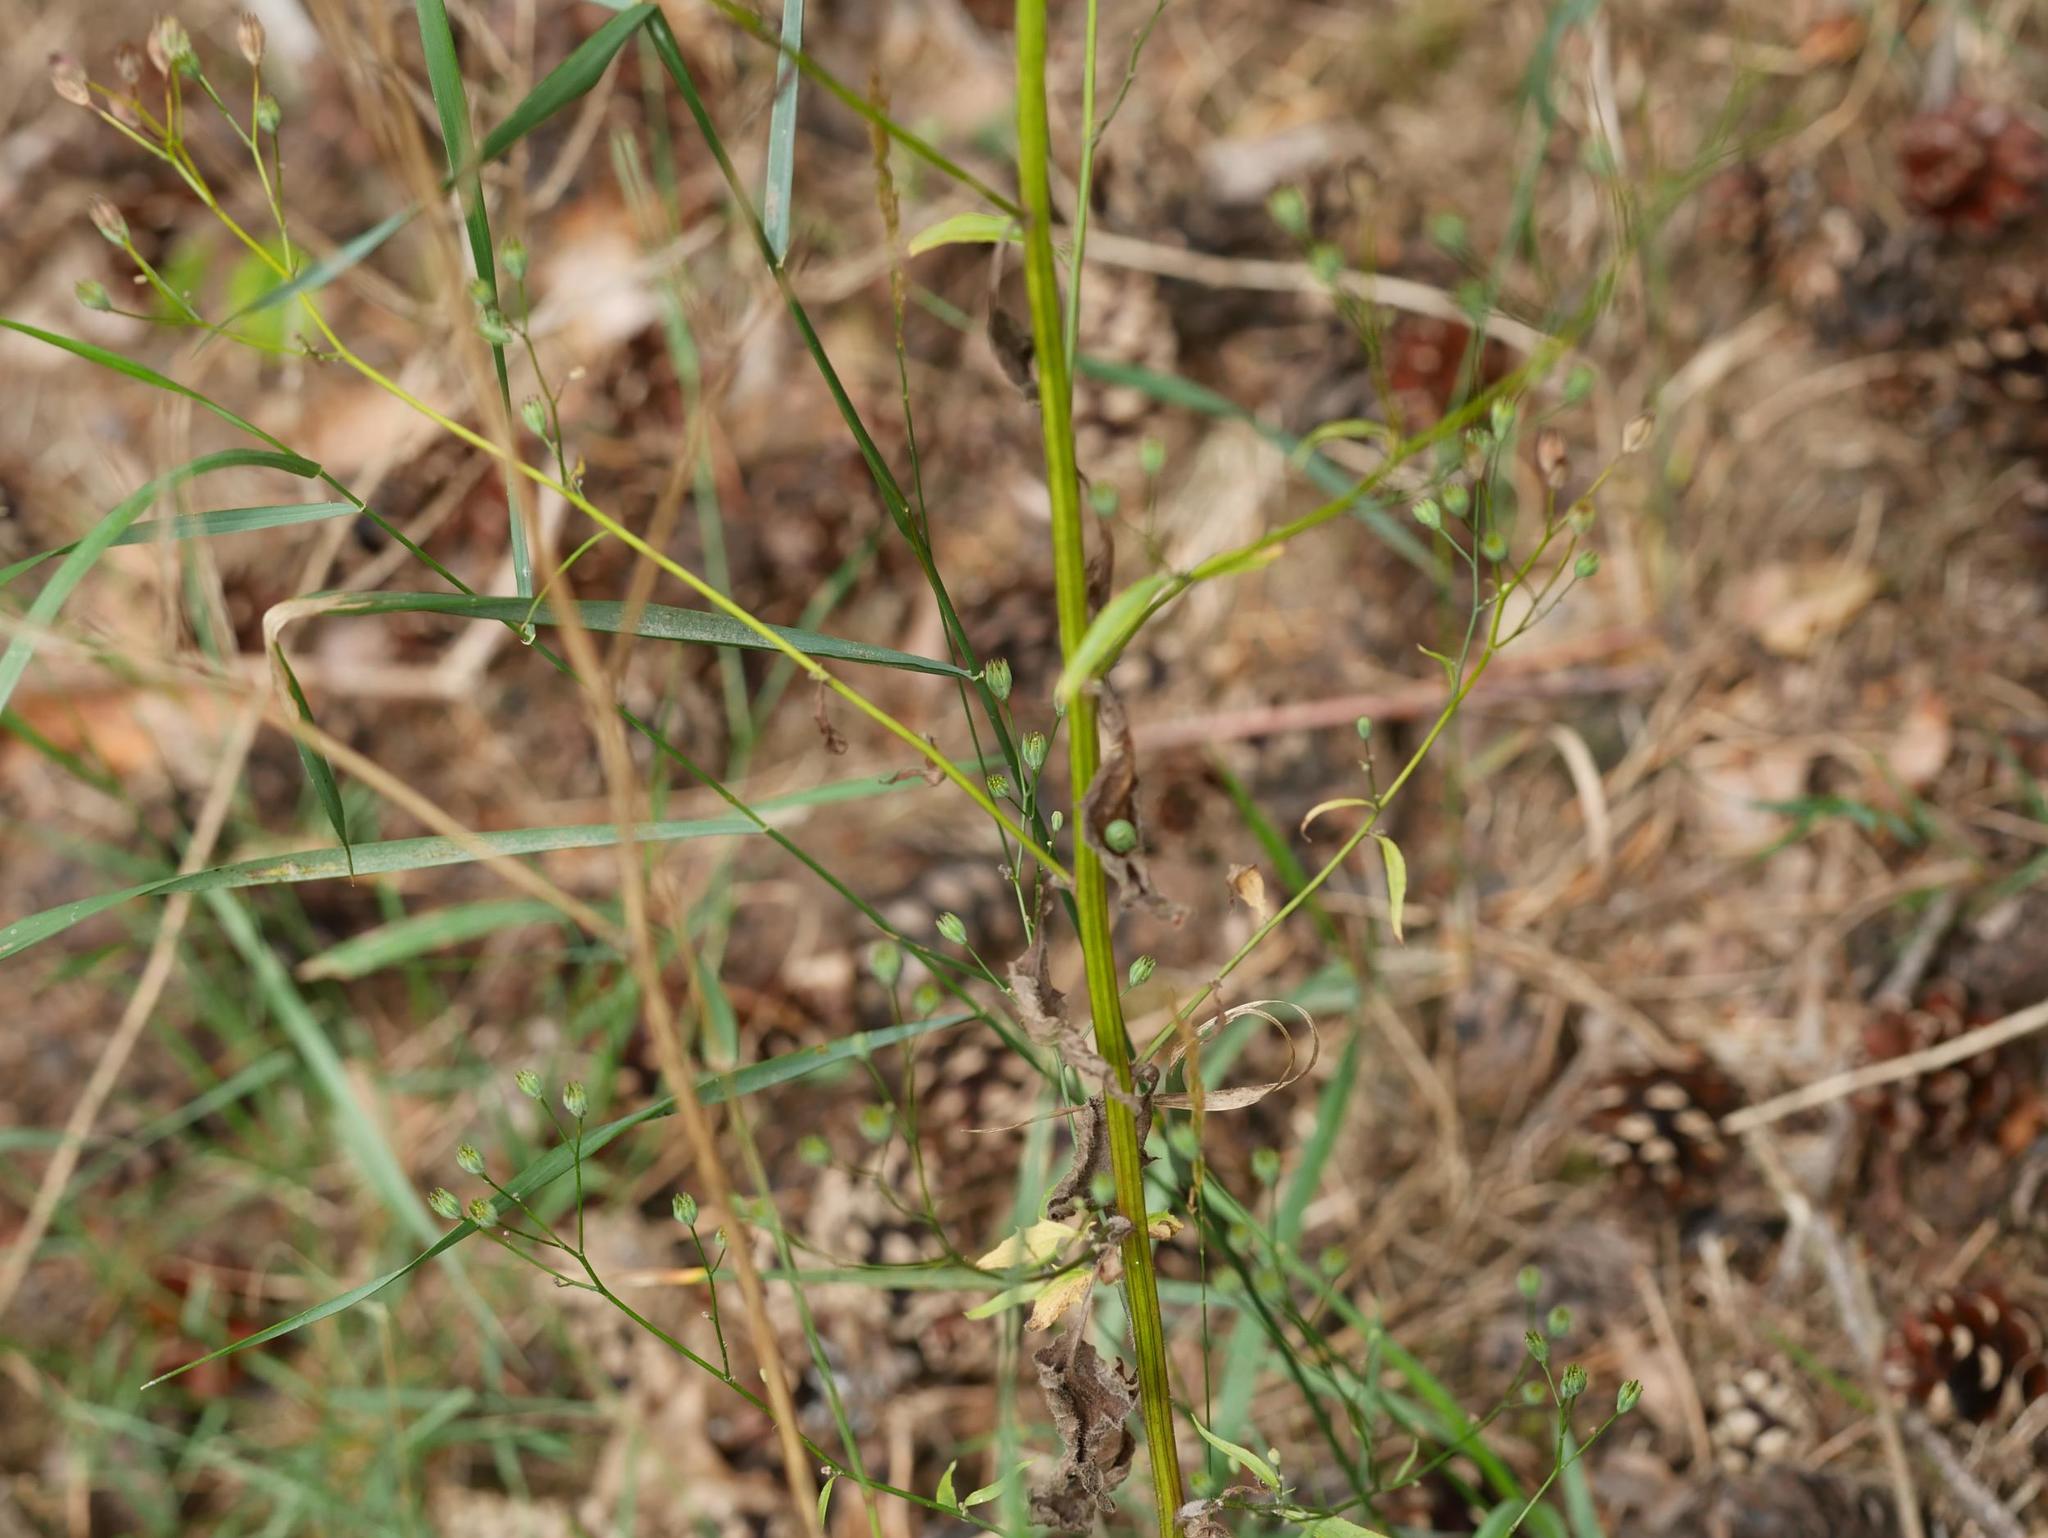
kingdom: Plantae
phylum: Tracheophyta
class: Magnoliopsida
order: Asterales
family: Asteraceae
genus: Lapsana
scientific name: Lapsana communis
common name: Nipplewort
